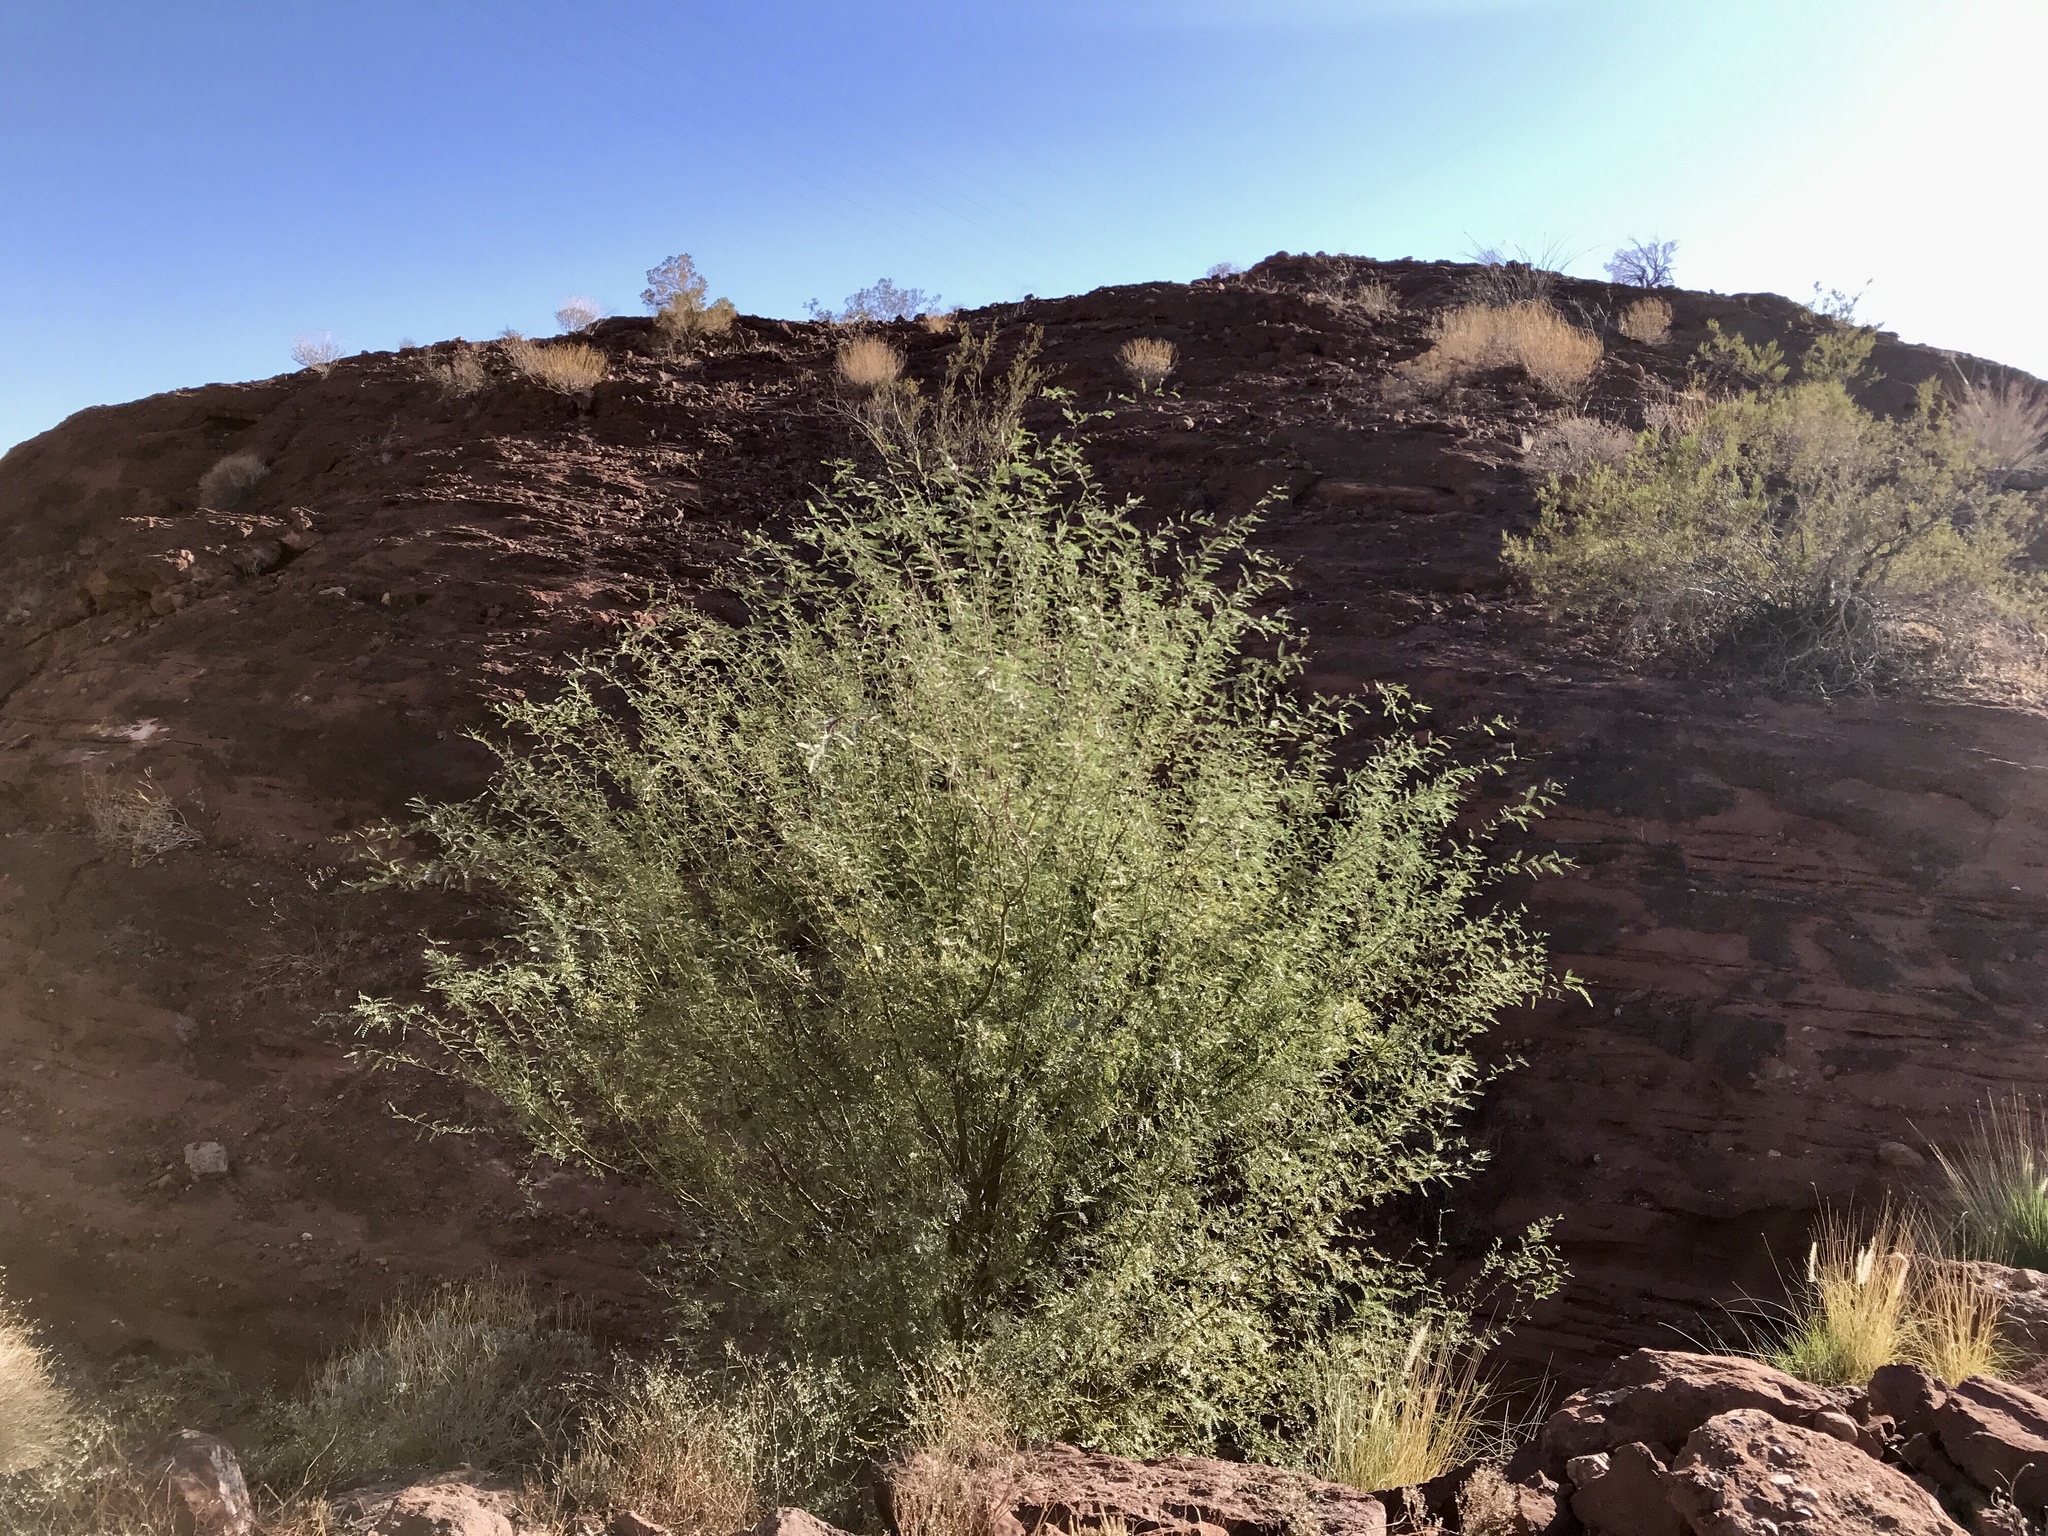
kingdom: Plantae
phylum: Tracheophyta
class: Magnoliopsida
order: Fabales
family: Fabaceae
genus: Parkinsonia
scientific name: Parkinsonia florida
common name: Blue paloverde
